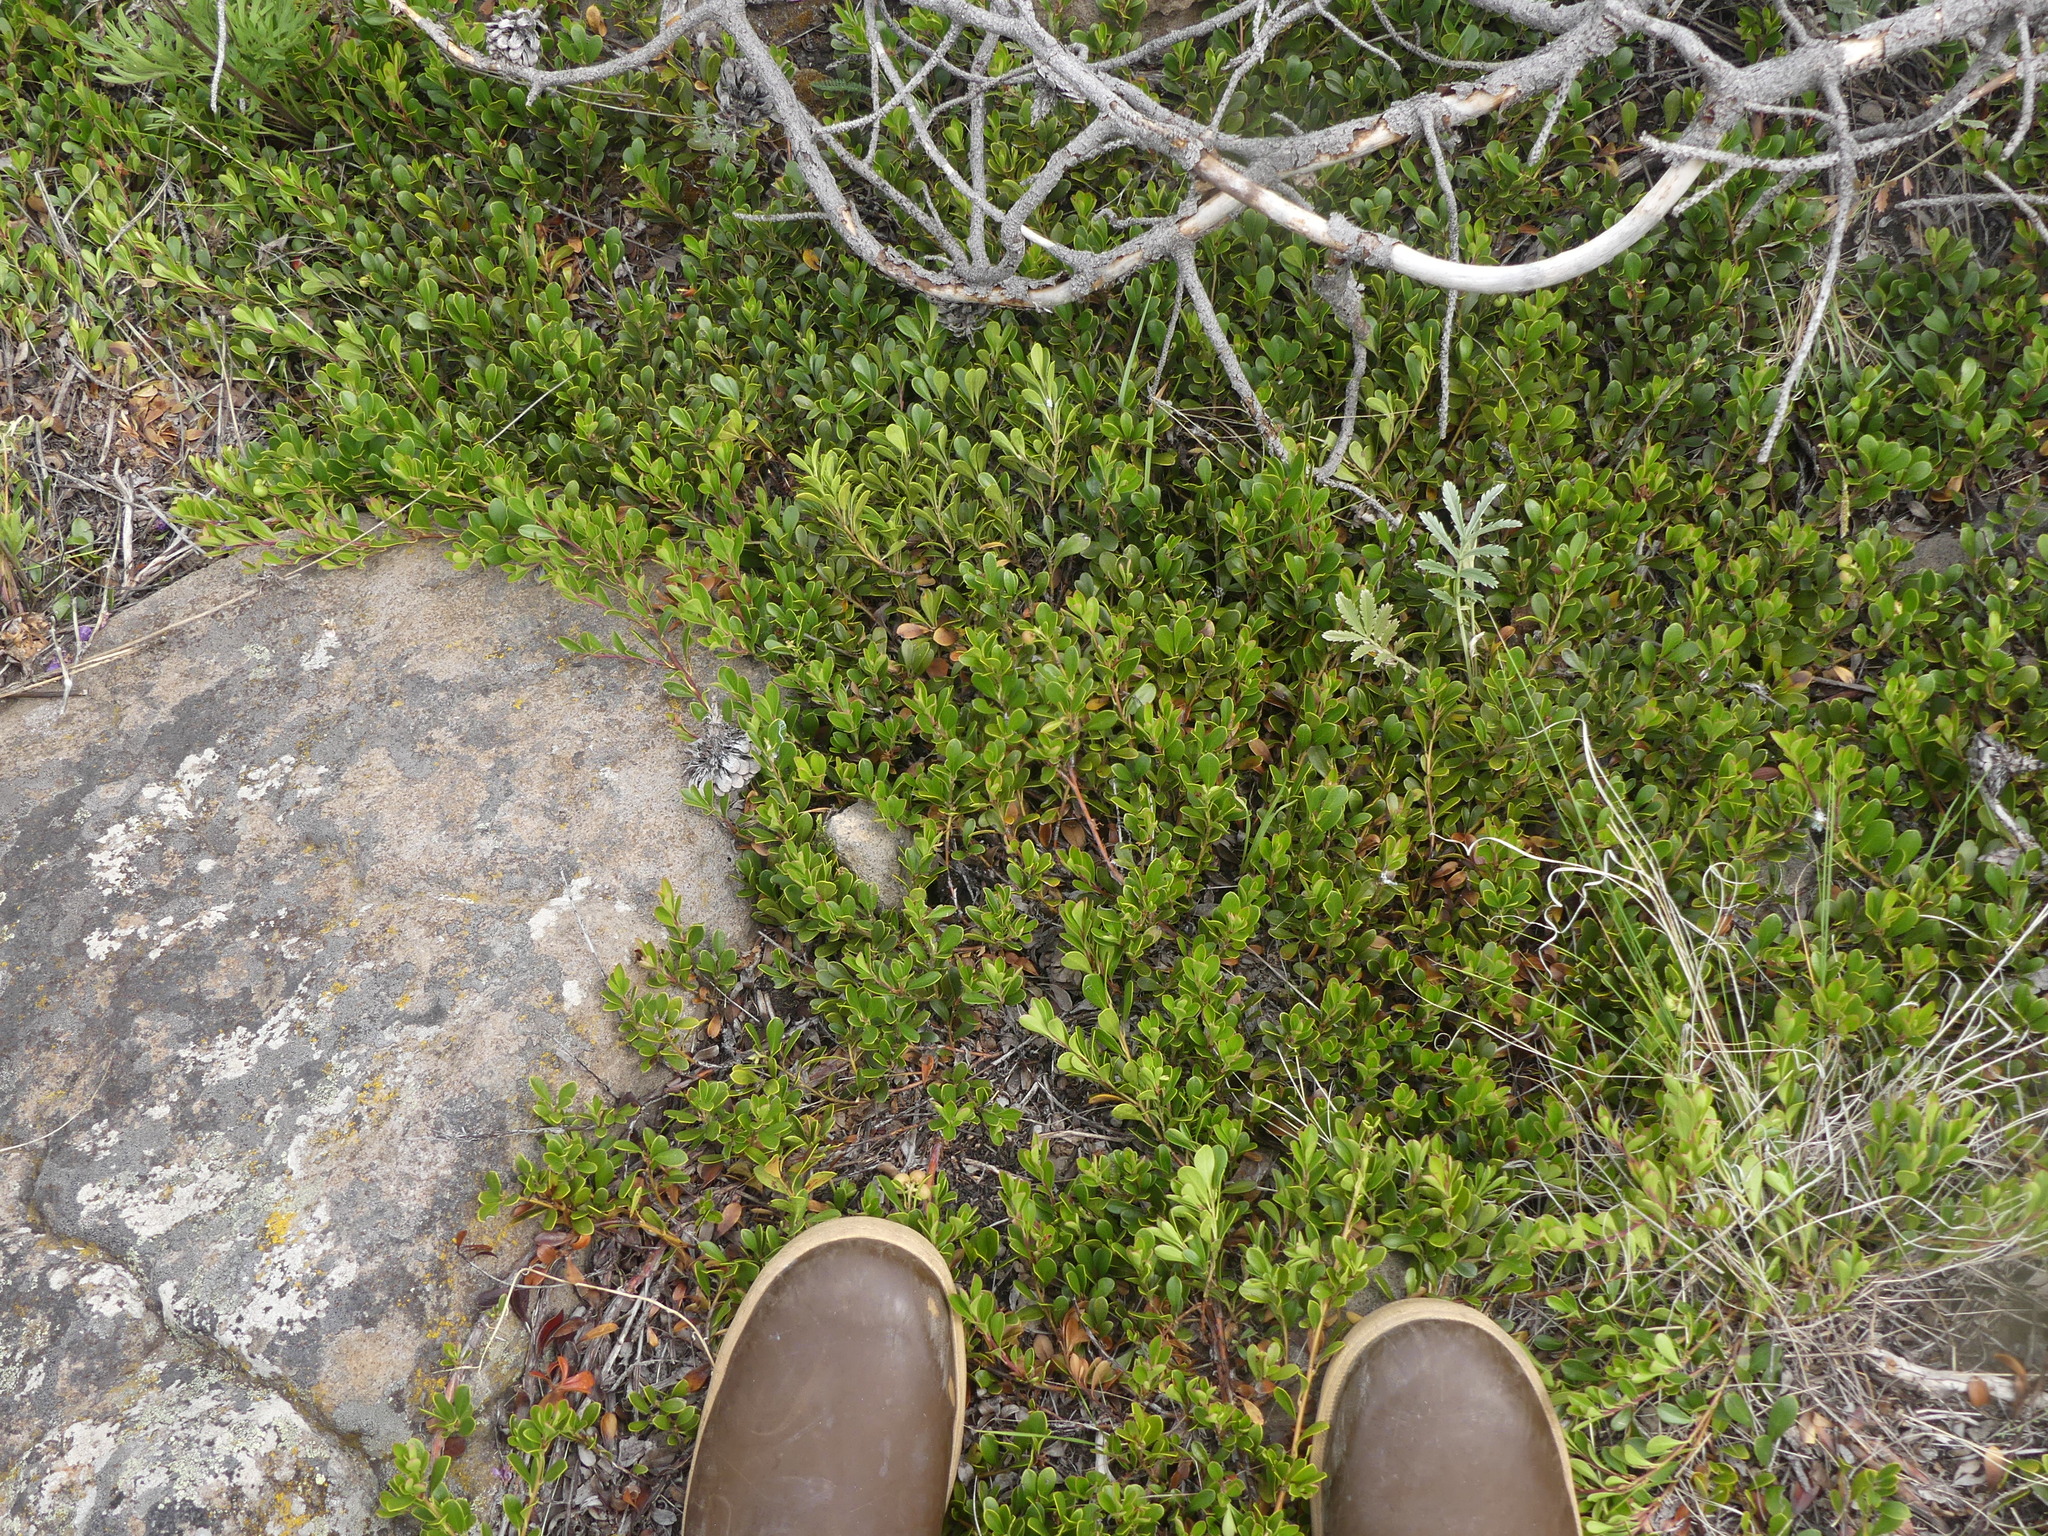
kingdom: Plantae
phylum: Tracheophyta
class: Magnoliopsida
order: Ericales
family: Ericaceae
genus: Arctostaphylos
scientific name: Arctostaphylos uva-ursi
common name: Bearberry
